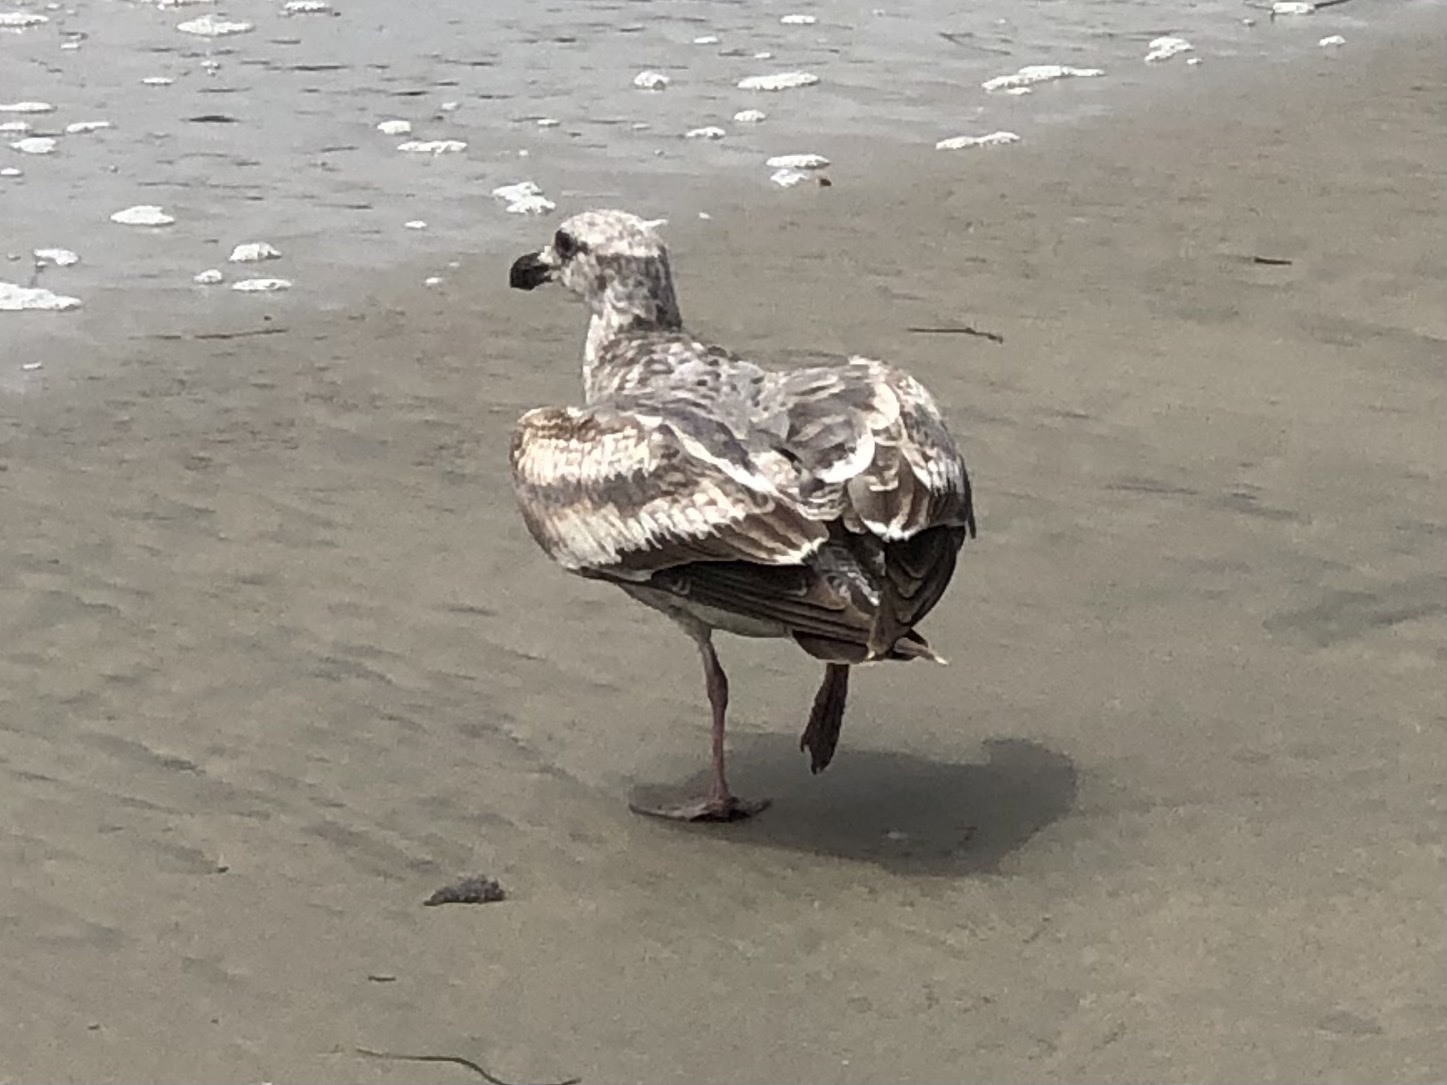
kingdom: Animalia
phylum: Chordata
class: Aves
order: Charadriiformes
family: Laridae
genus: Larus
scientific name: Larus occidentalis
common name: Western gull
